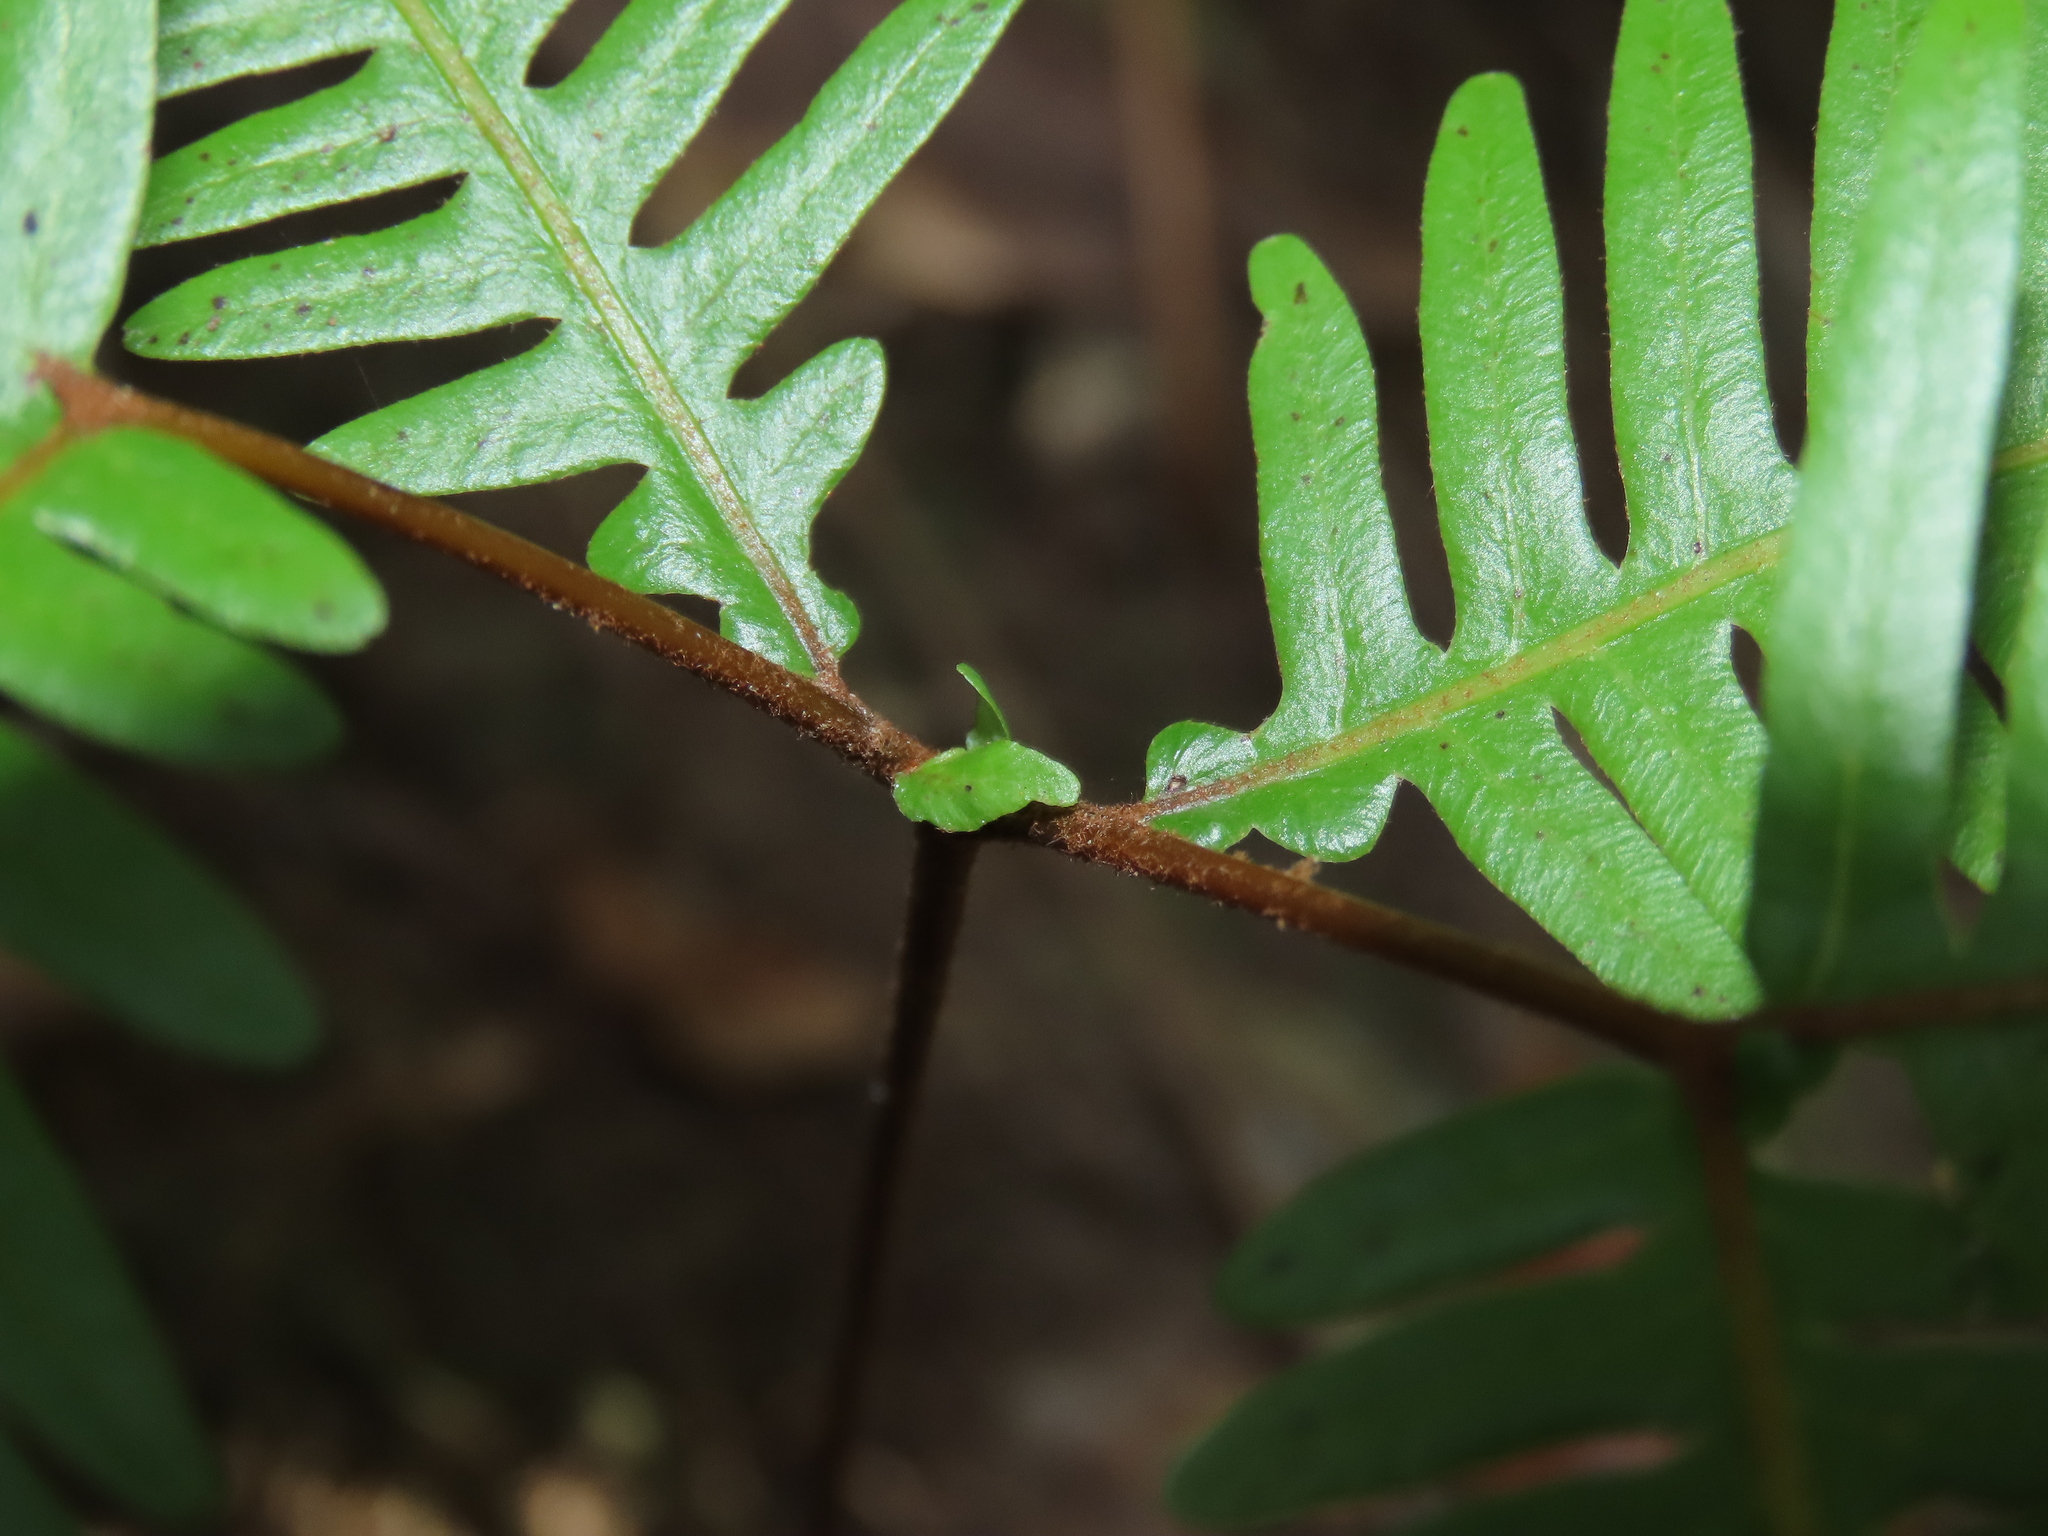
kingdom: Plantae
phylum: Tracheophyta
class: Polypodiopsida
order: Gleicheniales
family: Gleicheniaceae
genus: Dicranopteris
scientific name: Dicranopteris linearis
